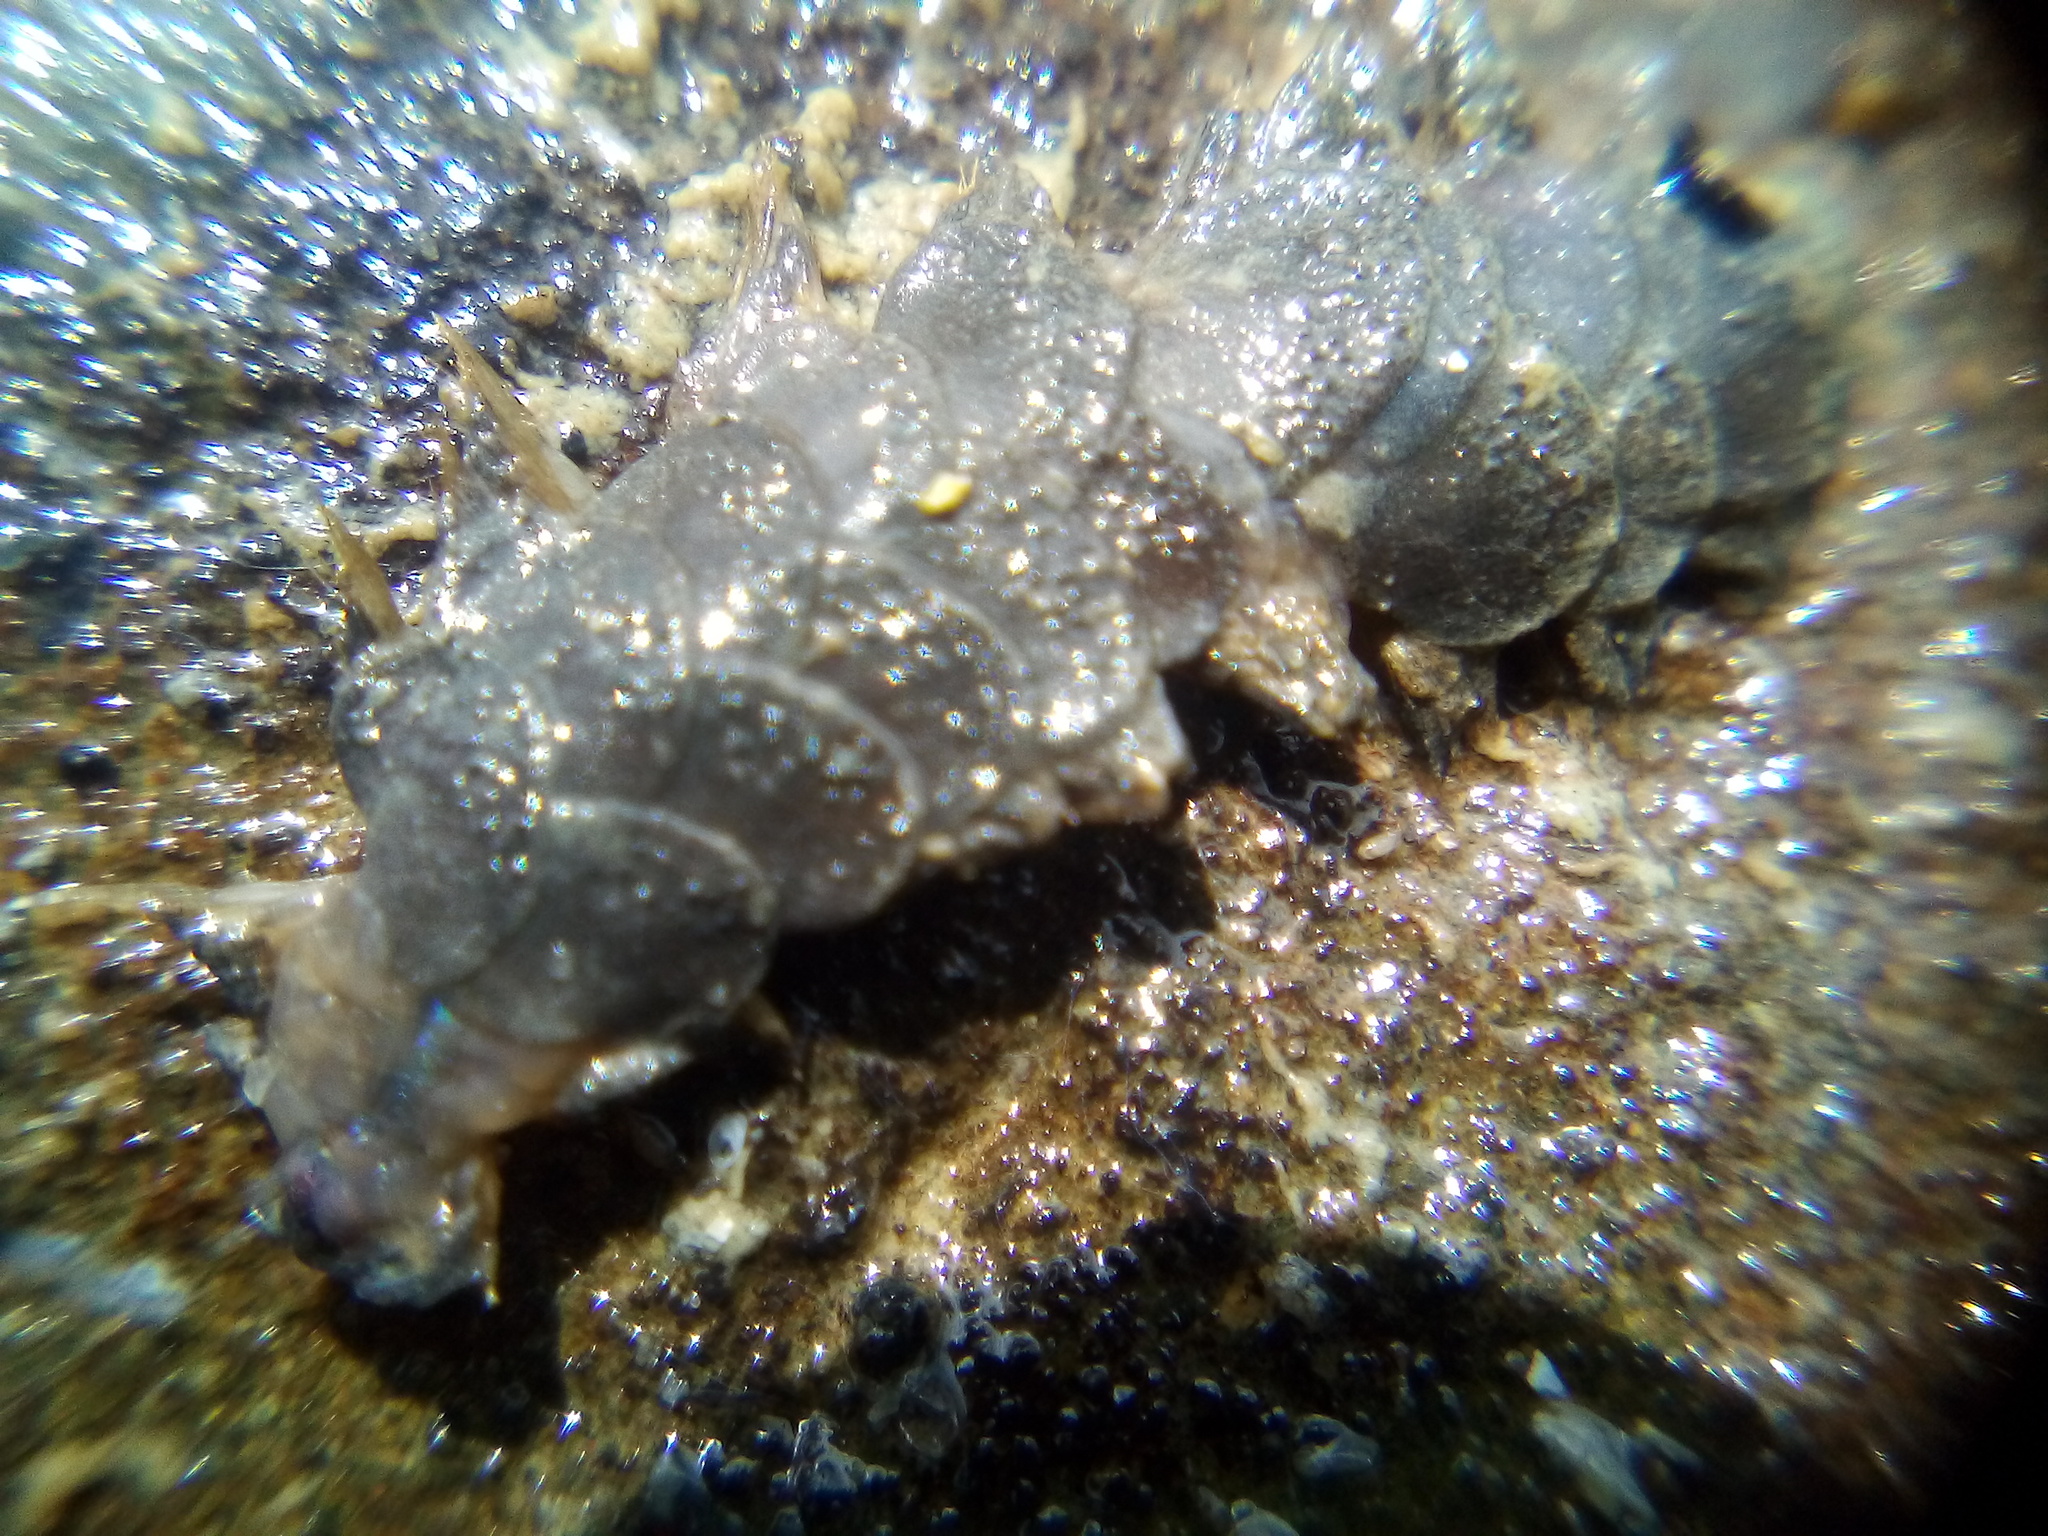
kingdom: Animalia
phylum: Annelida
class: Polychaeta
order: Phyllodocida
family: Polynoidae
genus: Paralepidonotus
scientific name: Paralepidonotus ampulliferus
